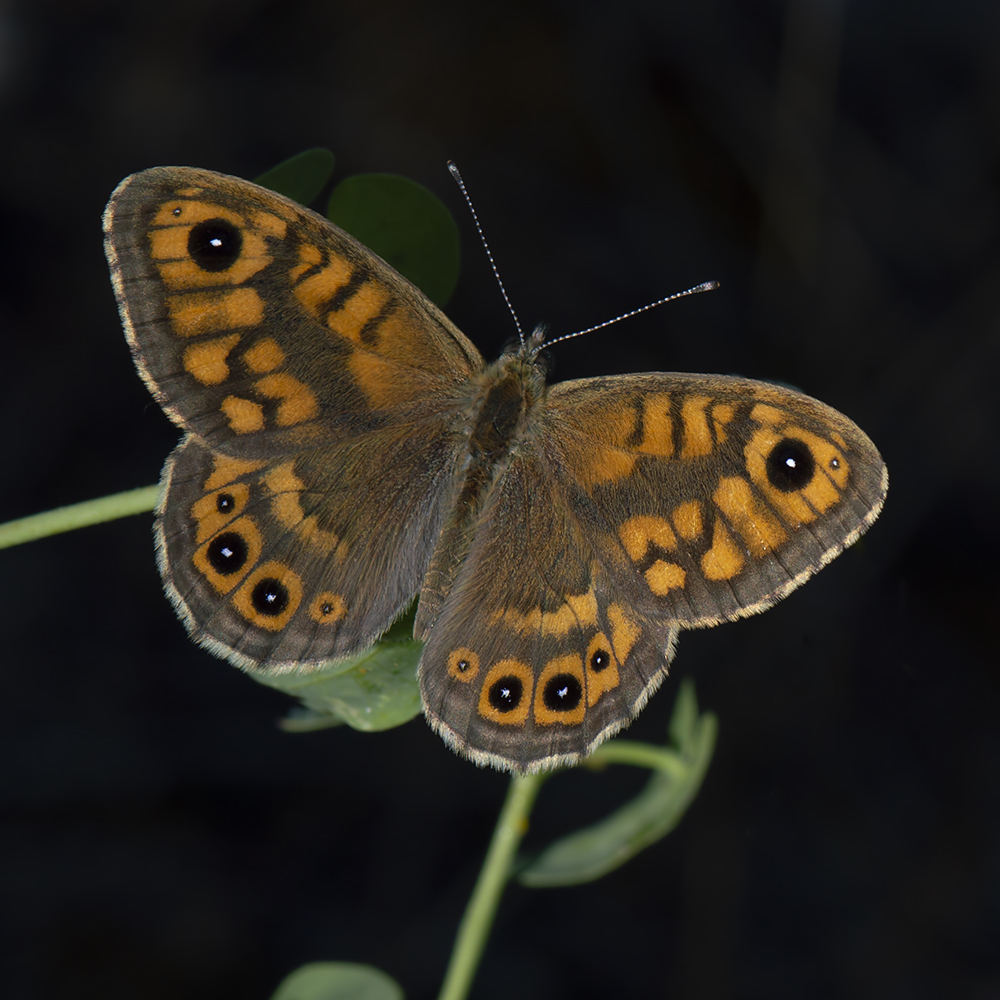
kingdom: Animalia
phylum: Arthropoda
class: Insecta
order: Lepidoptera
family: Nymphalidae
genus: Pararge
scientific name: Pararge Lasiommata megera
